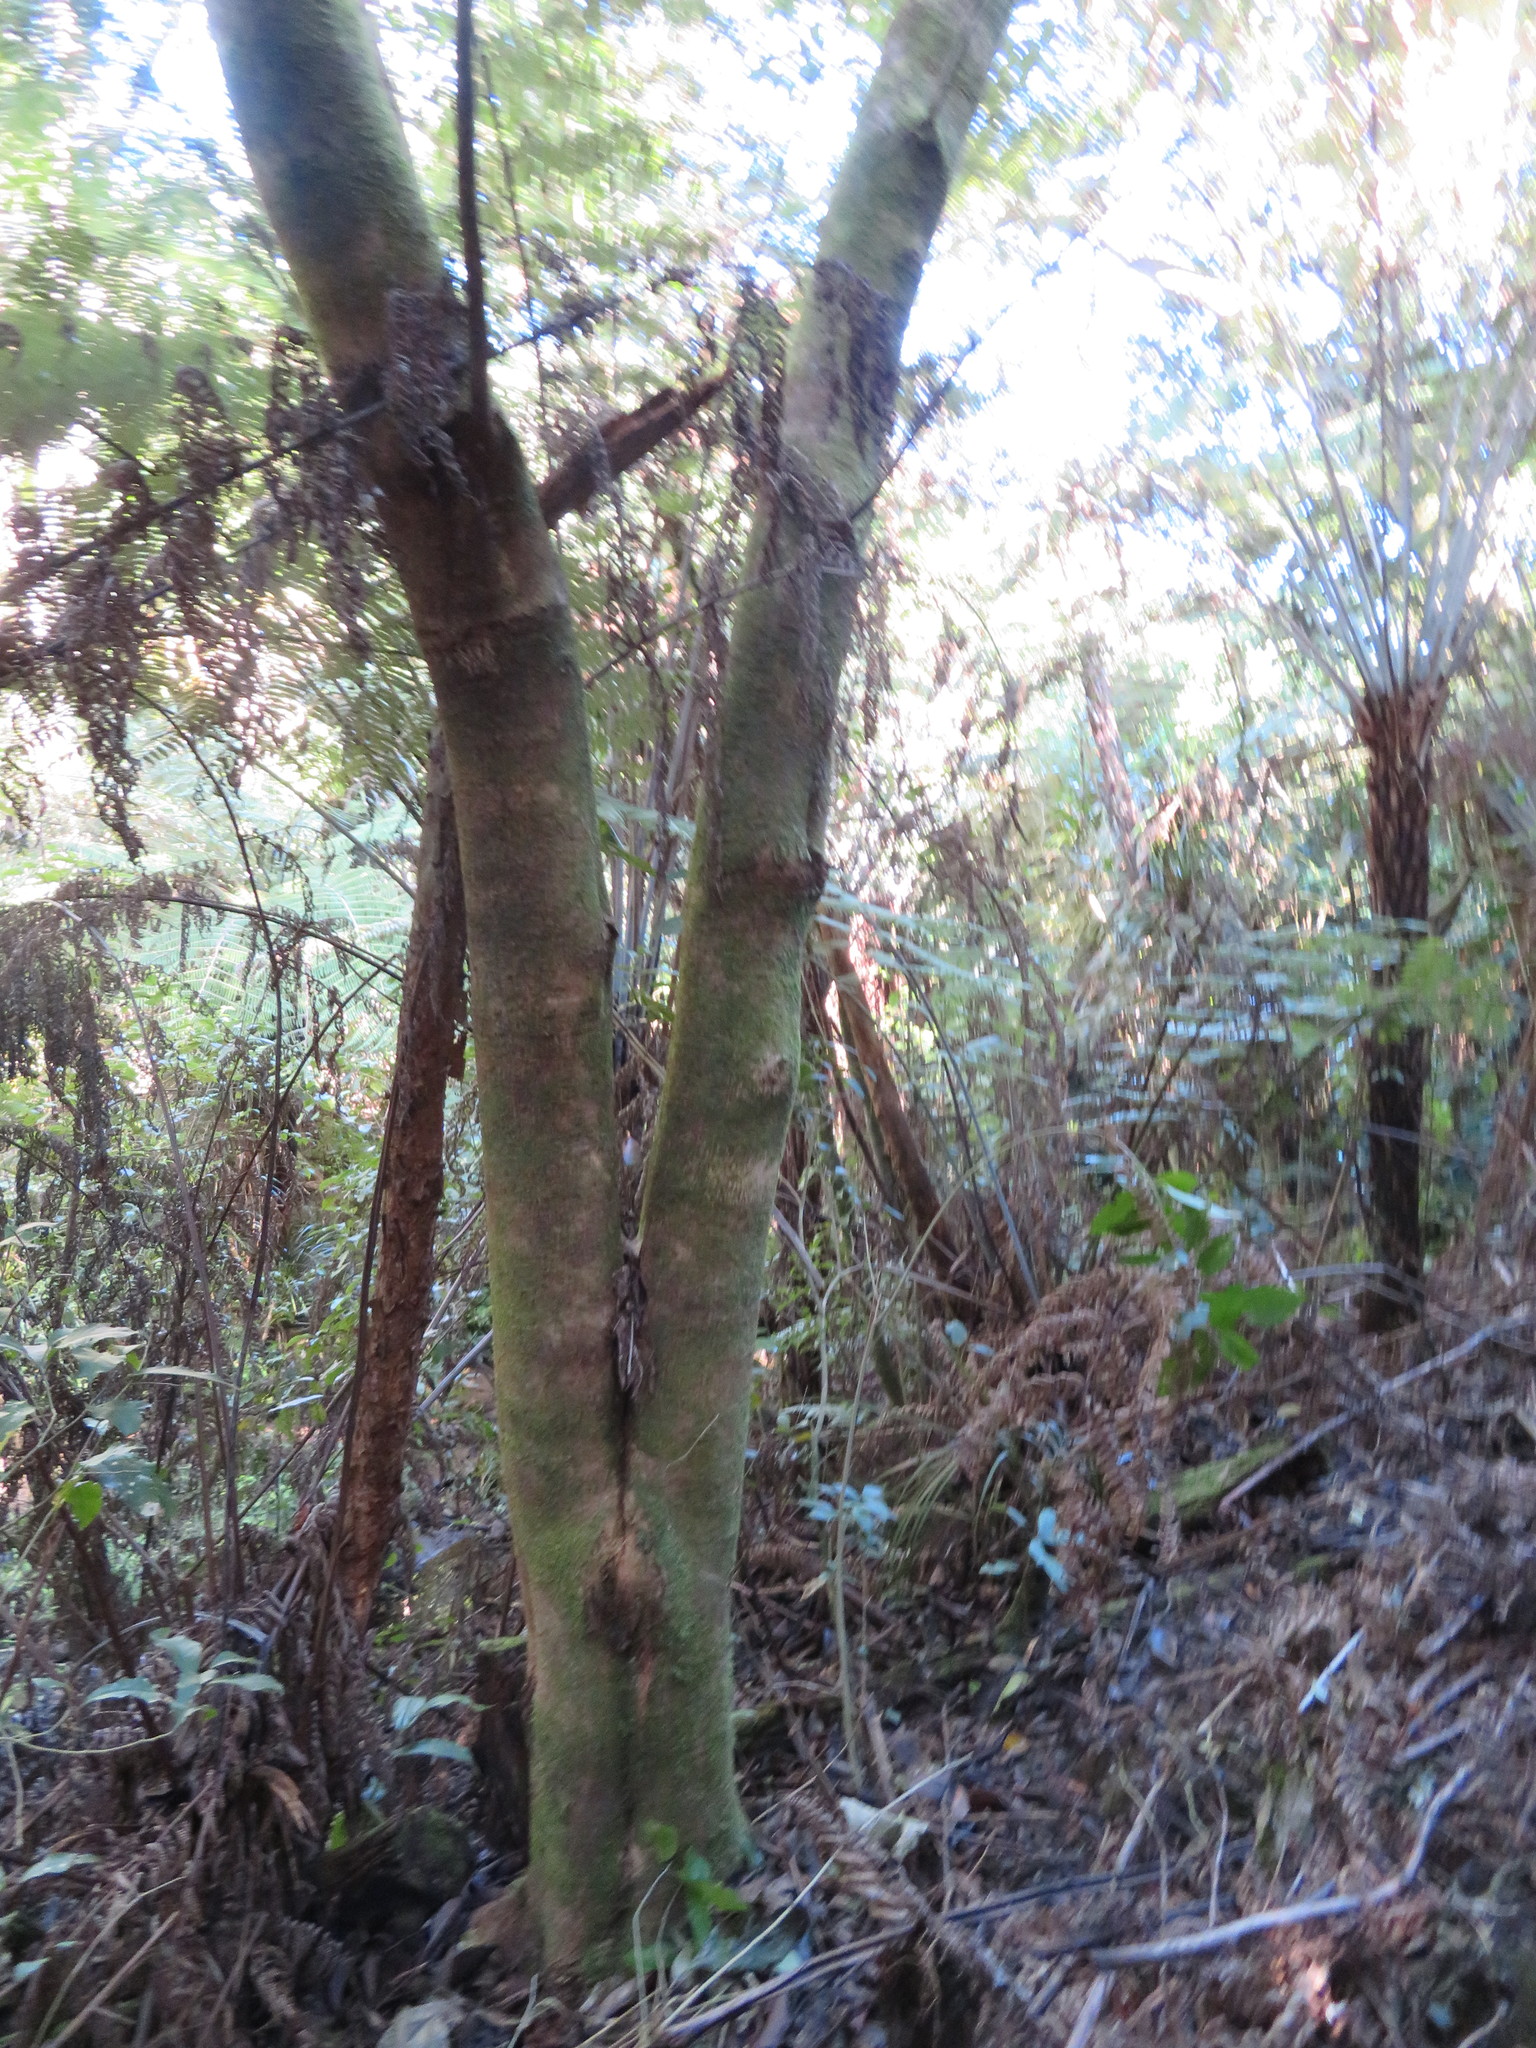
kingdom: Plantae
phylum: Tracheophyta
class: Magnoliopsida
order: Lamiales
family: Oleaceae
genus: Ligustrum
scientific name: Ligustrum lucidum
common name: Glossy privet
